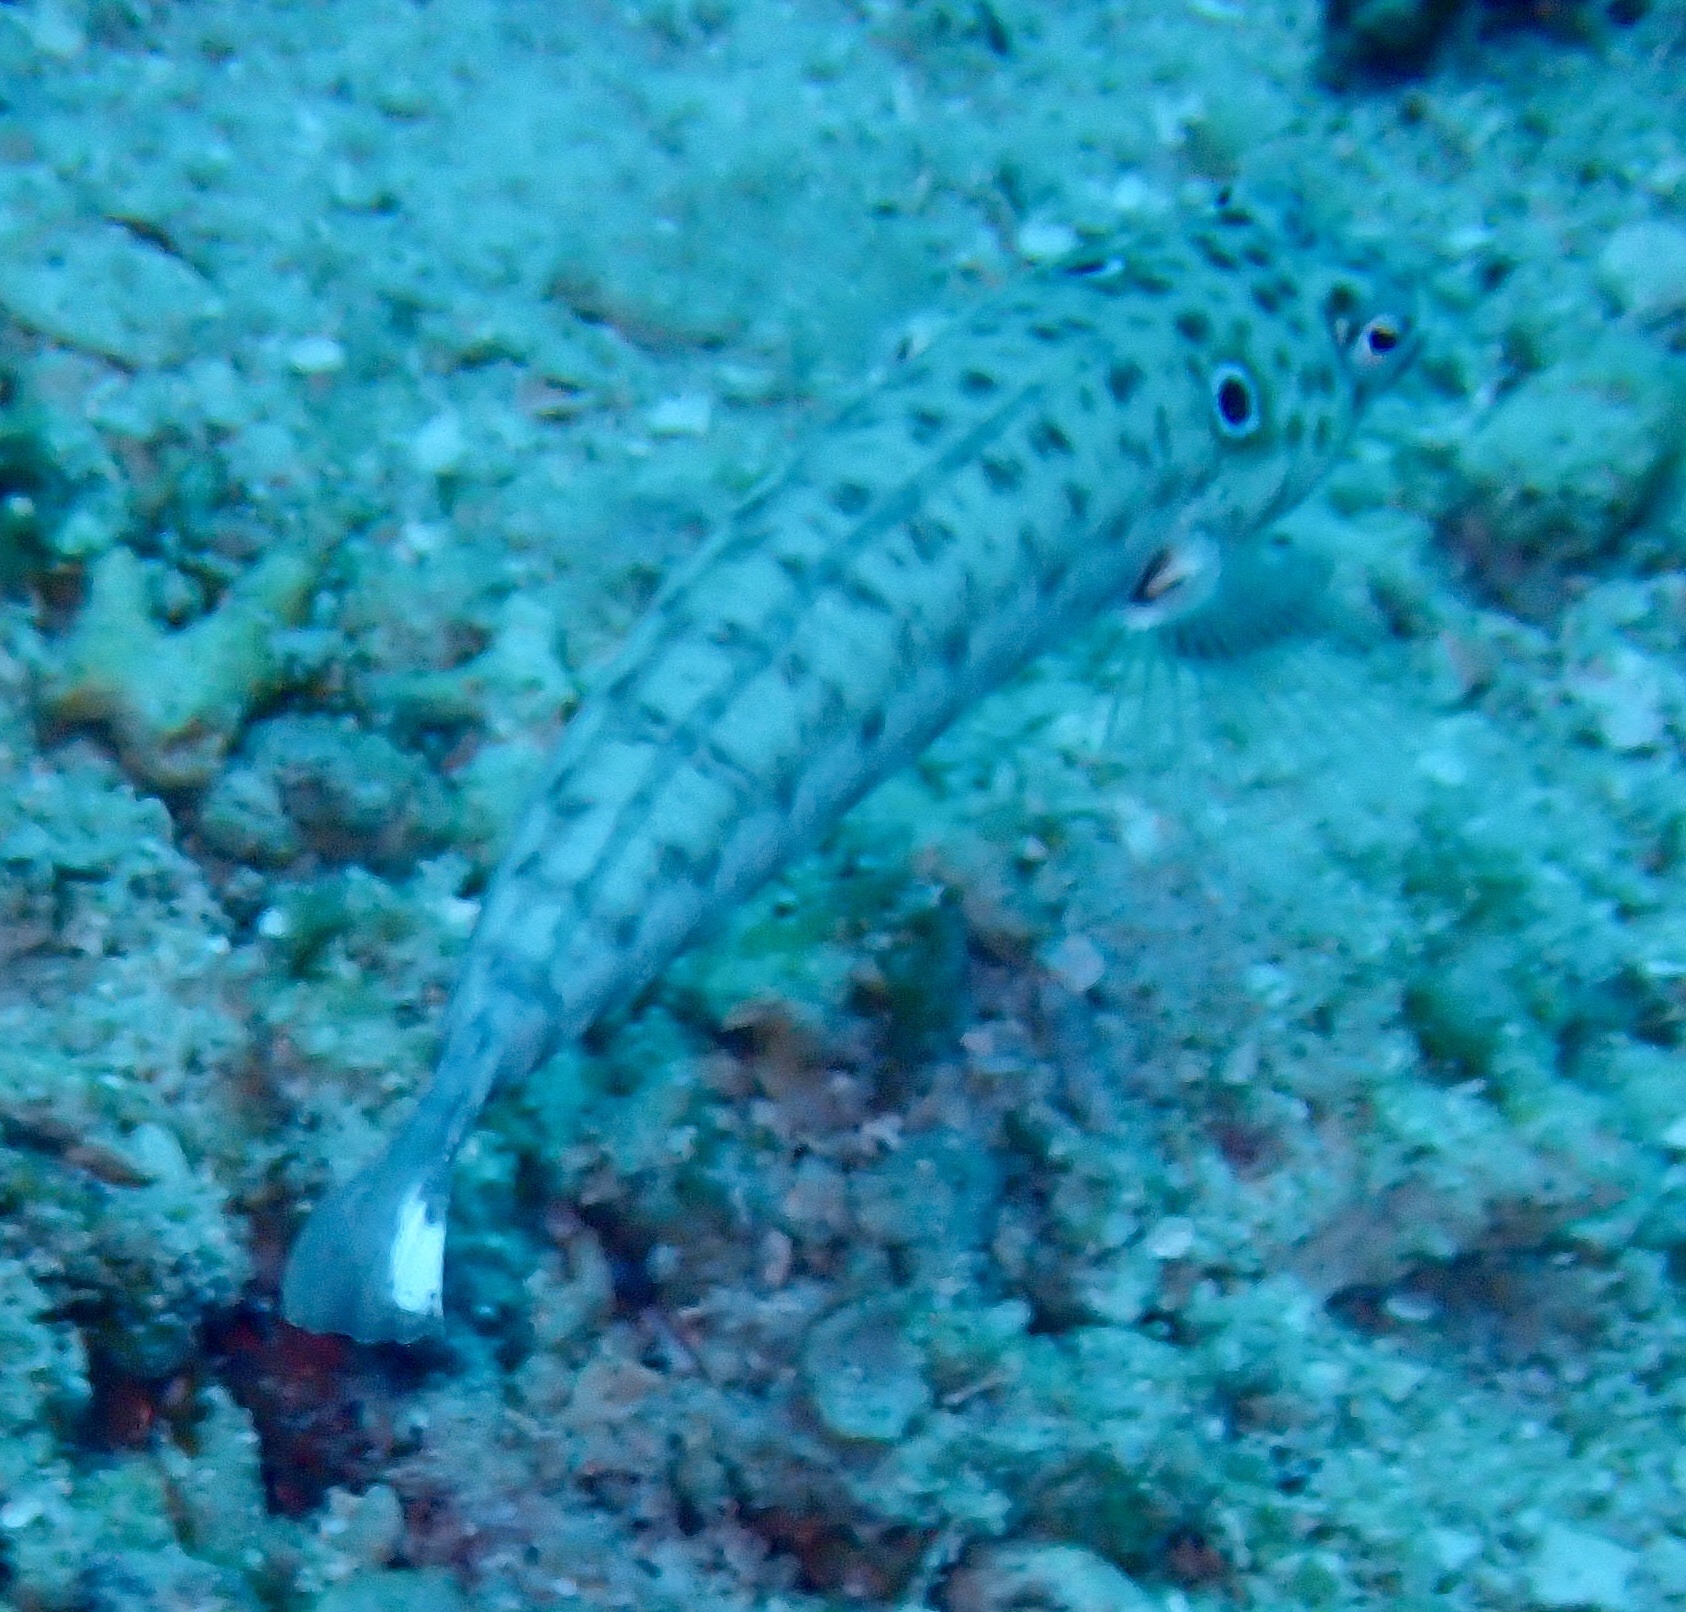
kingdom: Animalia
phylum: Chordata
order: Perciformes
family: Pinguipedidae
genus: Parapercis
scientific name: Parapercis clathrata
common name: Latticed sandperch
